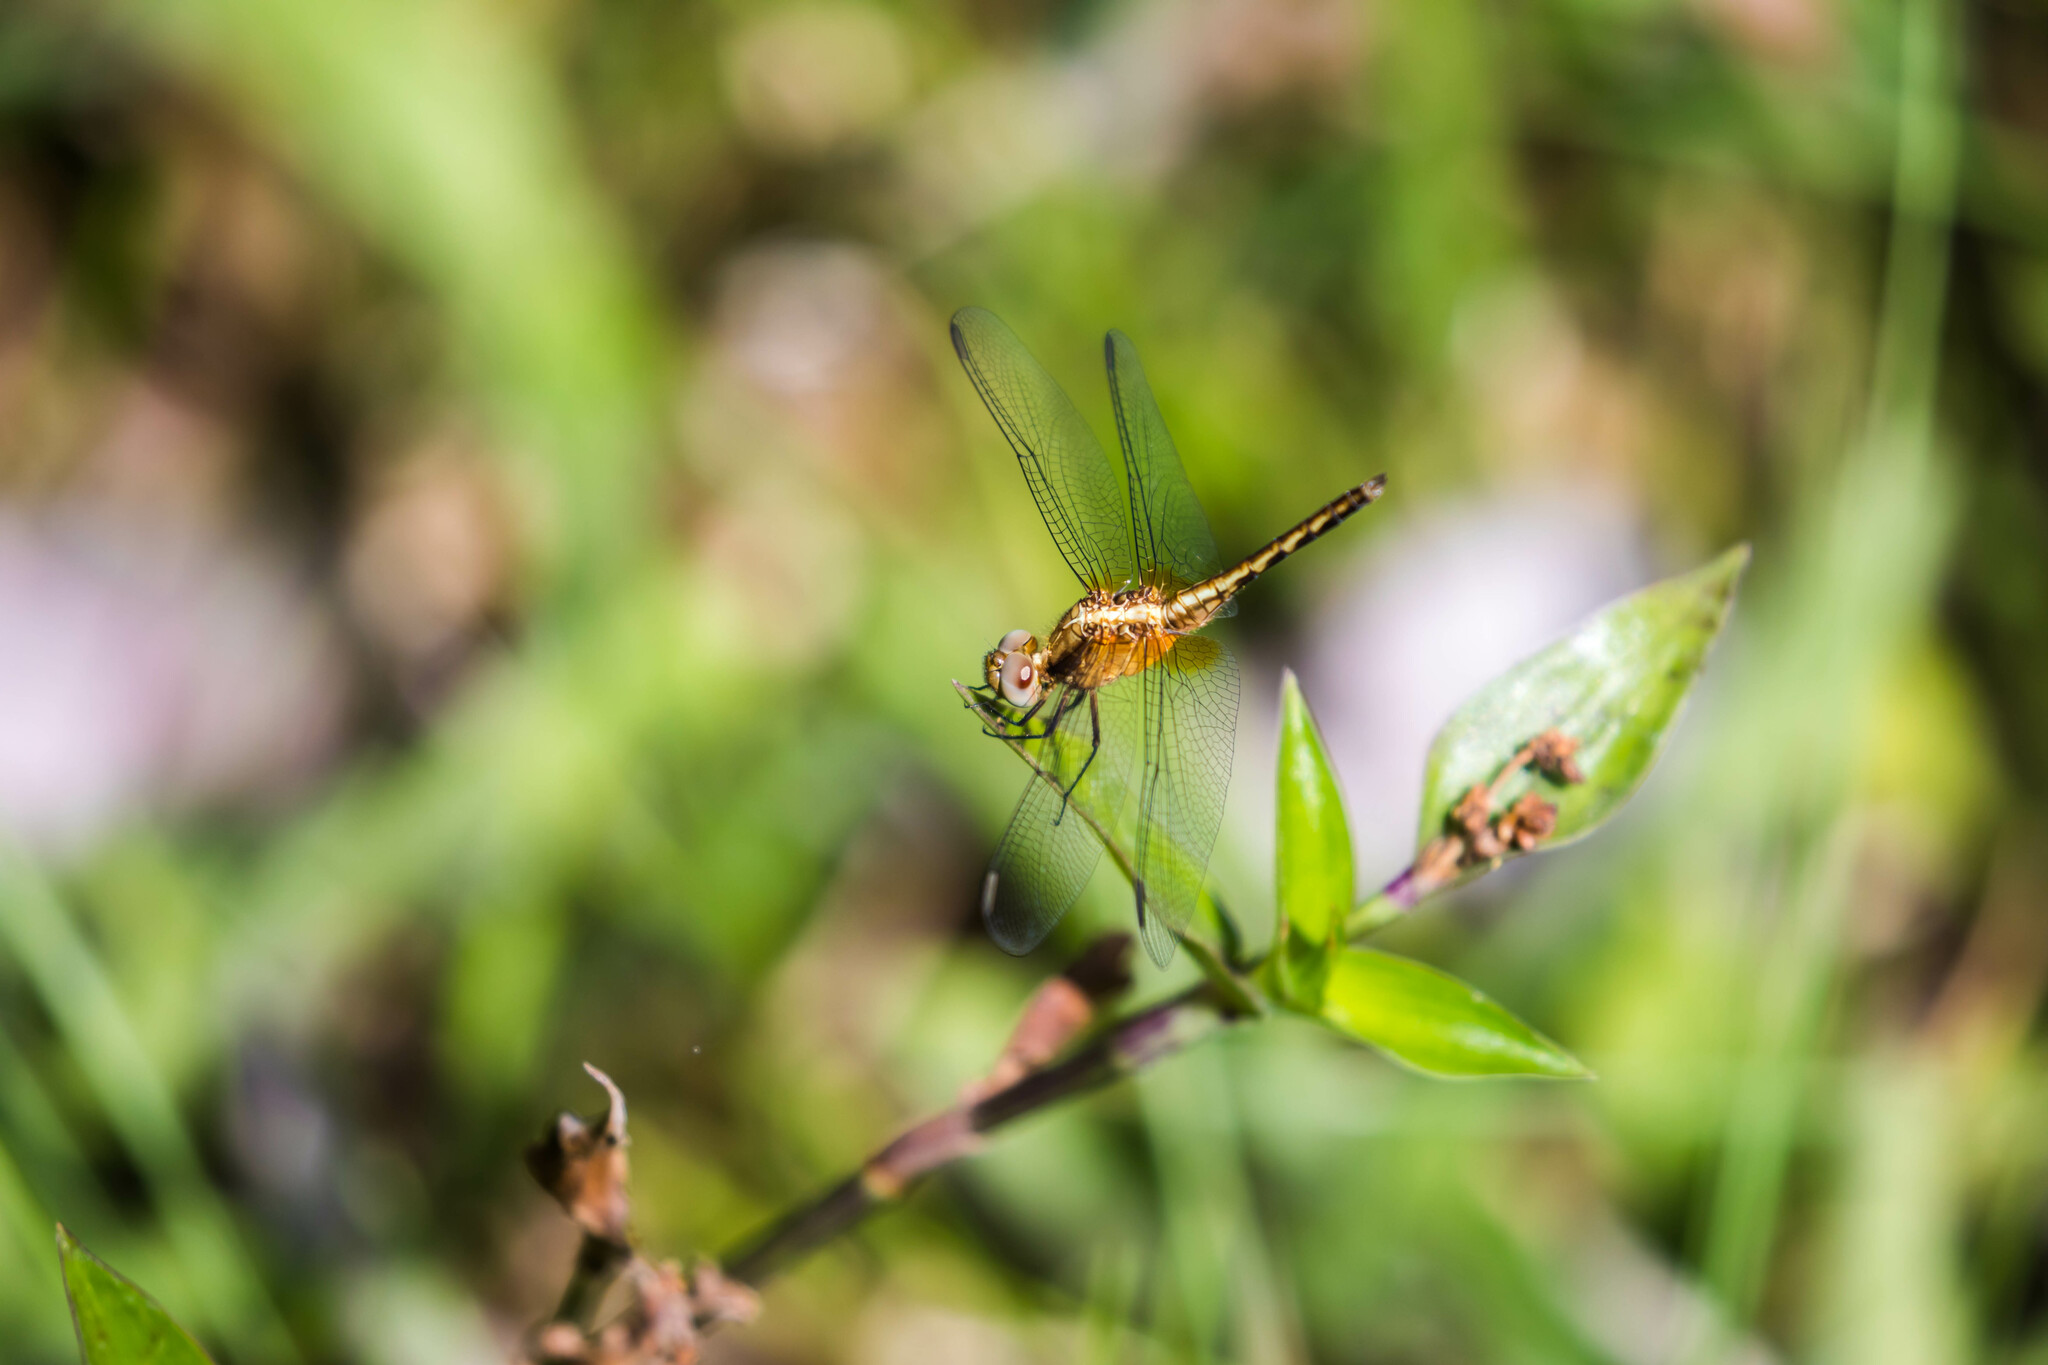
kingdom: Animalia
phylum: Arthropoda
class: Insecta
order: Odonata
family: Libellulidae
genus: Erythrodiplax
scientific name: Erythrodiplax fusca
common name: Red-faced dragonlet
